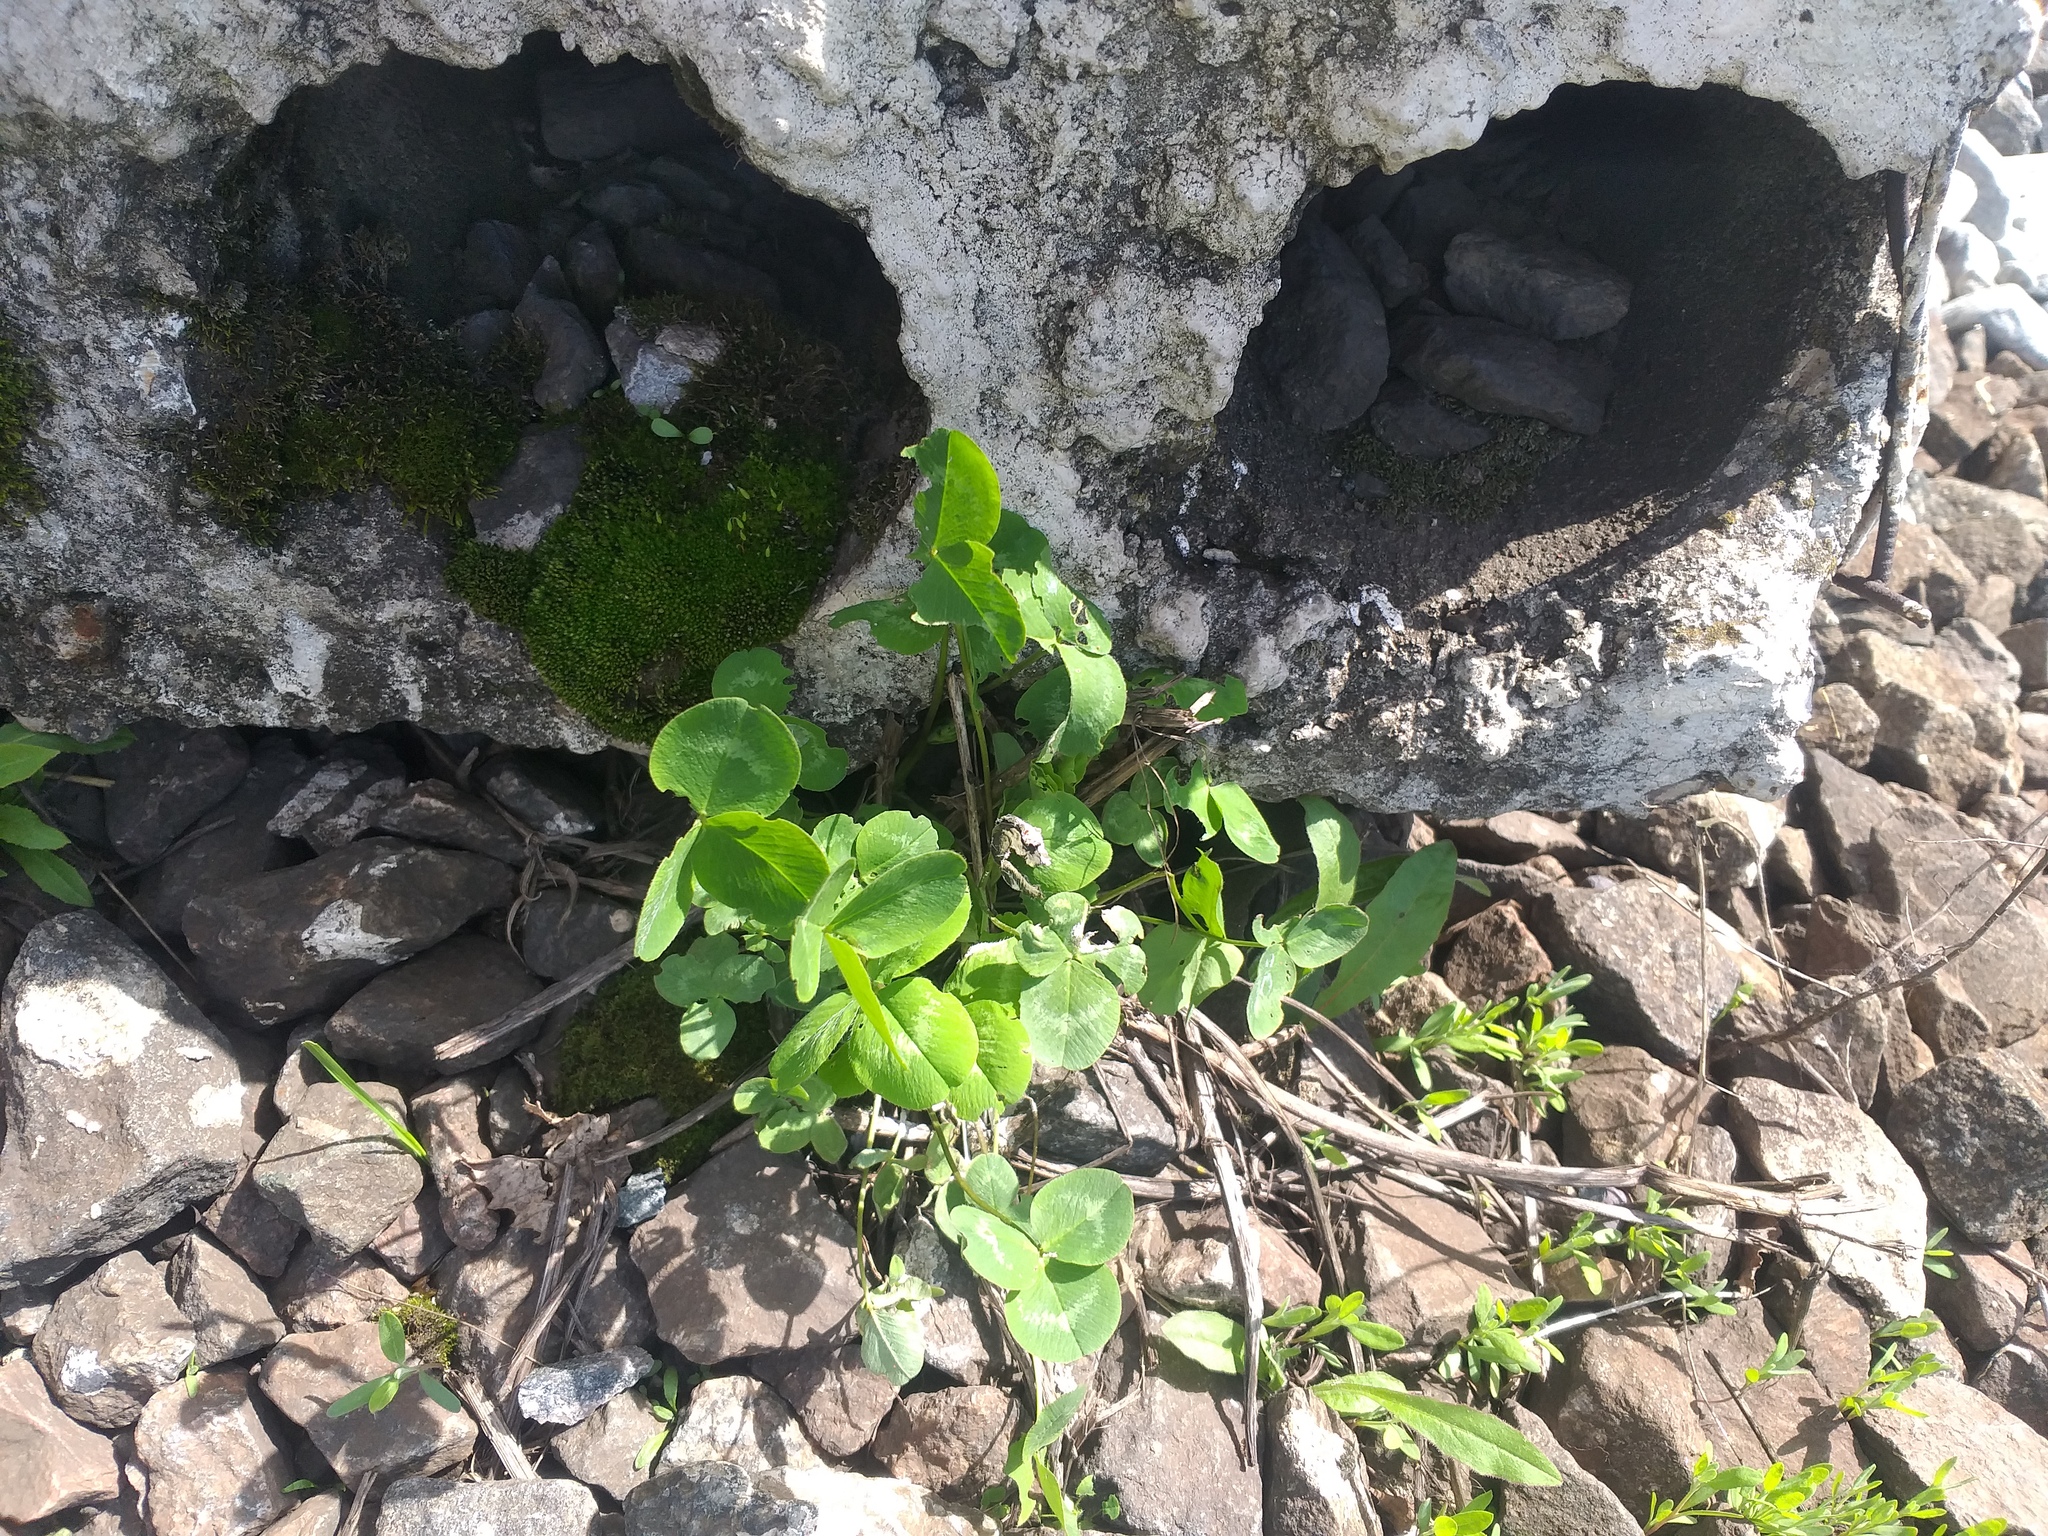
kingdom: Plantae
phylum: Tracheophyta
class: Magnoliopsida
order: Fabales
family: Fabaceae
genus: Trifolium
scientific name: Trifolium pratense
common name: Red clover
